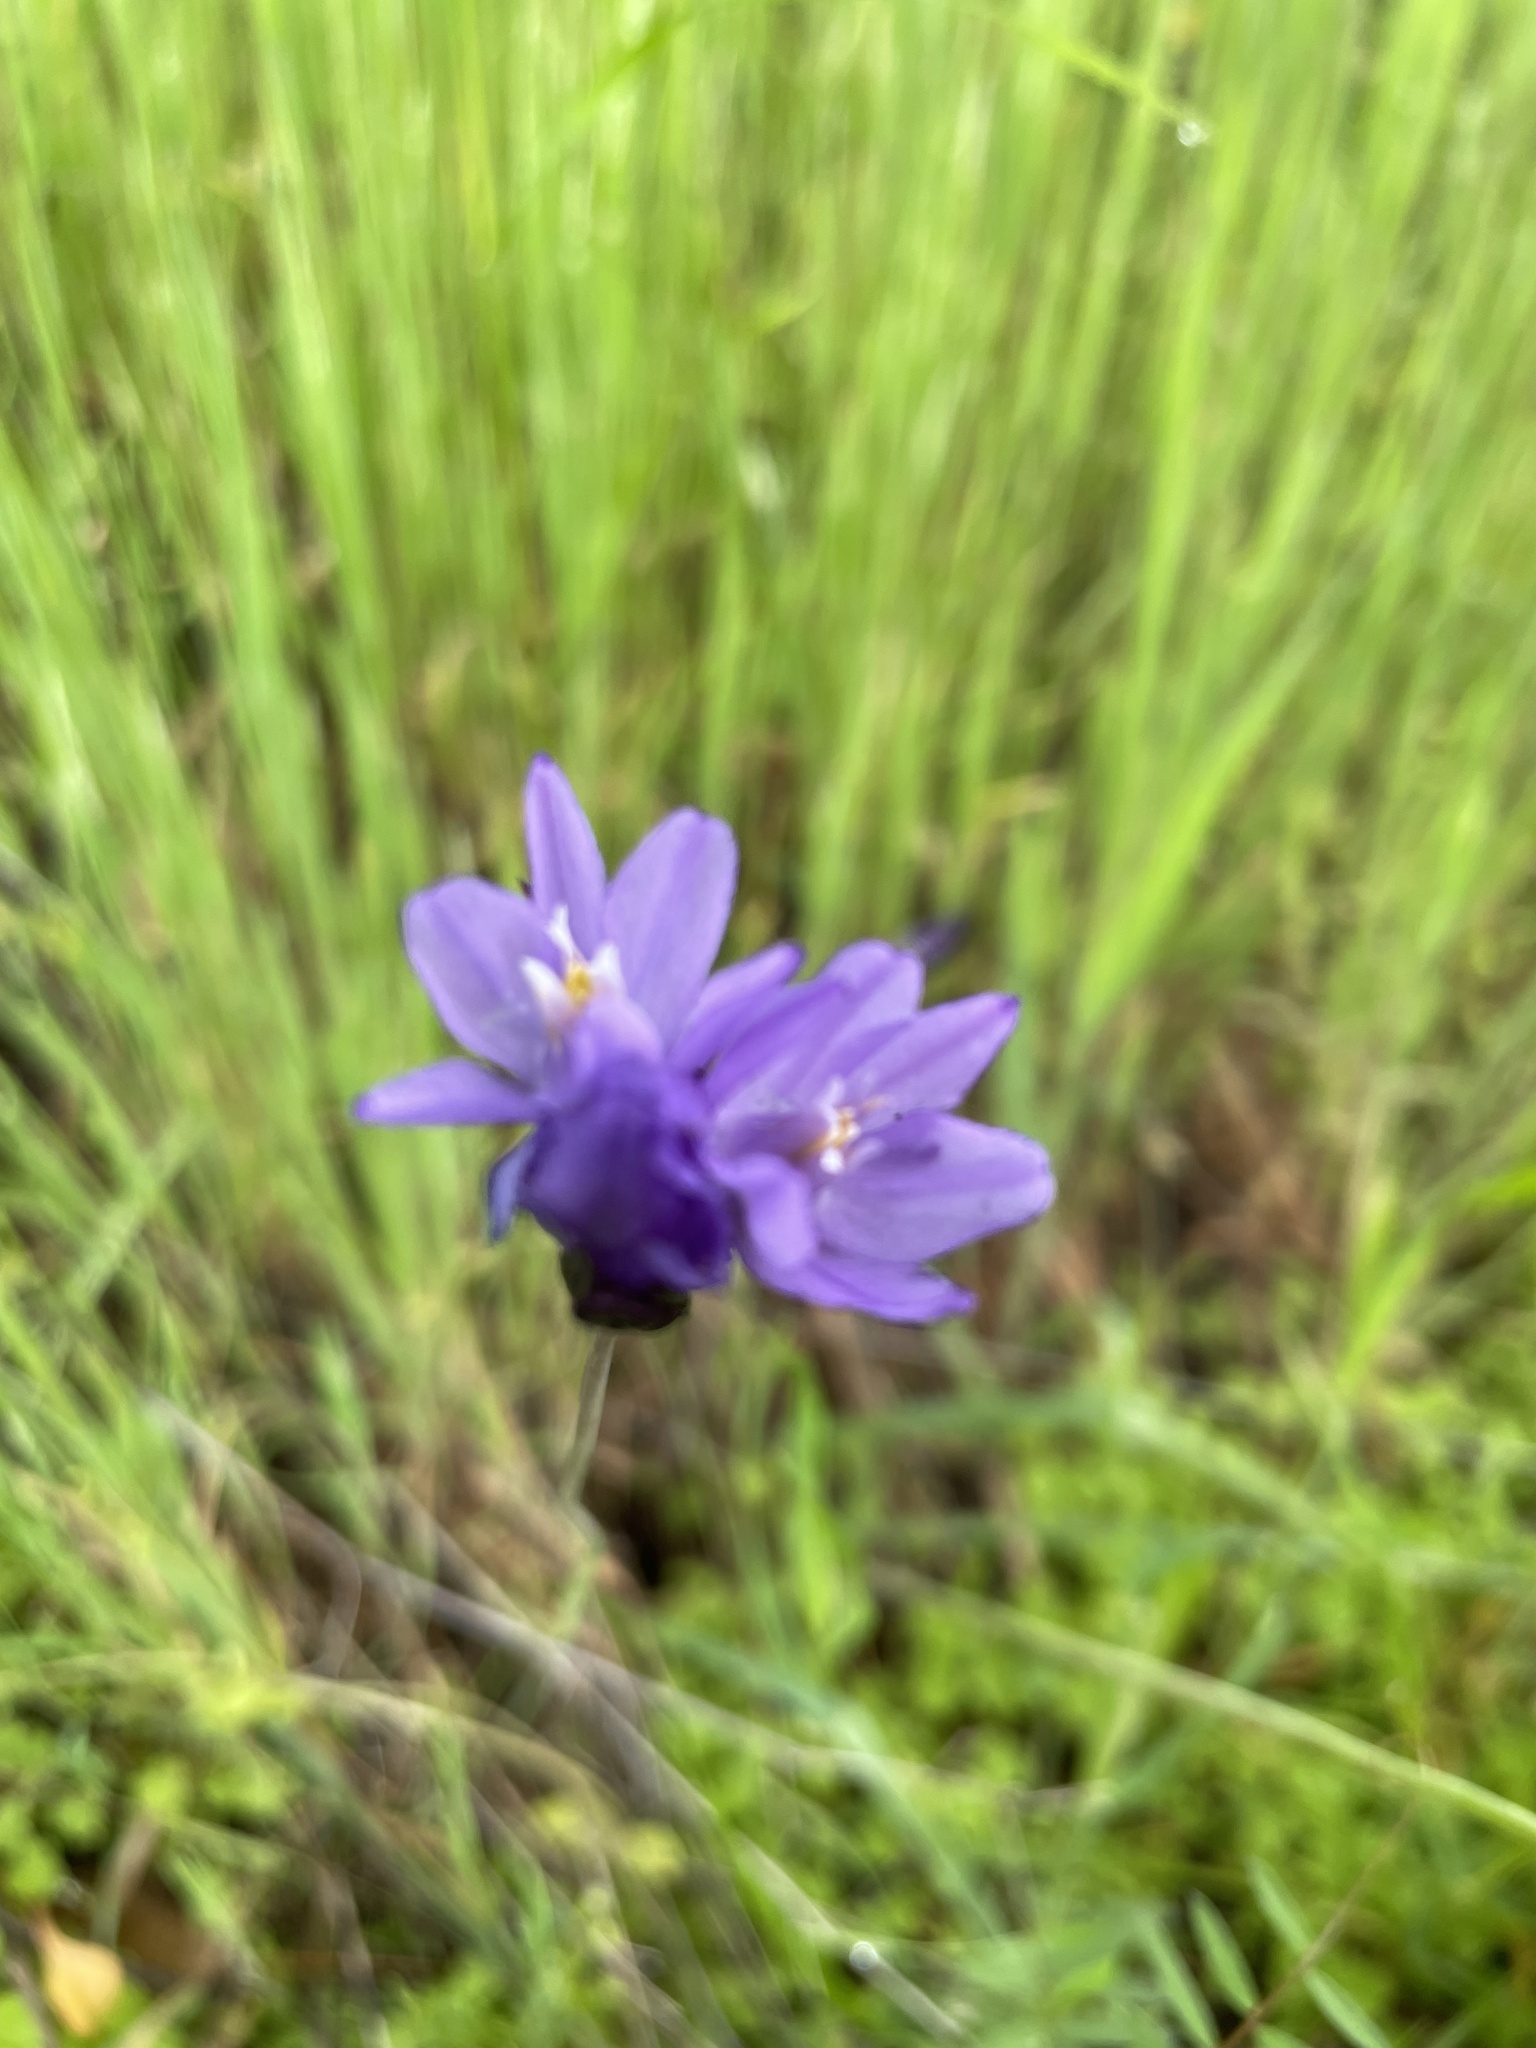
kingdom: Plantae
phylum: Tracheophyta
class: Liliopsida
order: Asparagales
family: Asparagaceae
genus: Dipterostemon
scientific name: Dipterostemon capitatus
